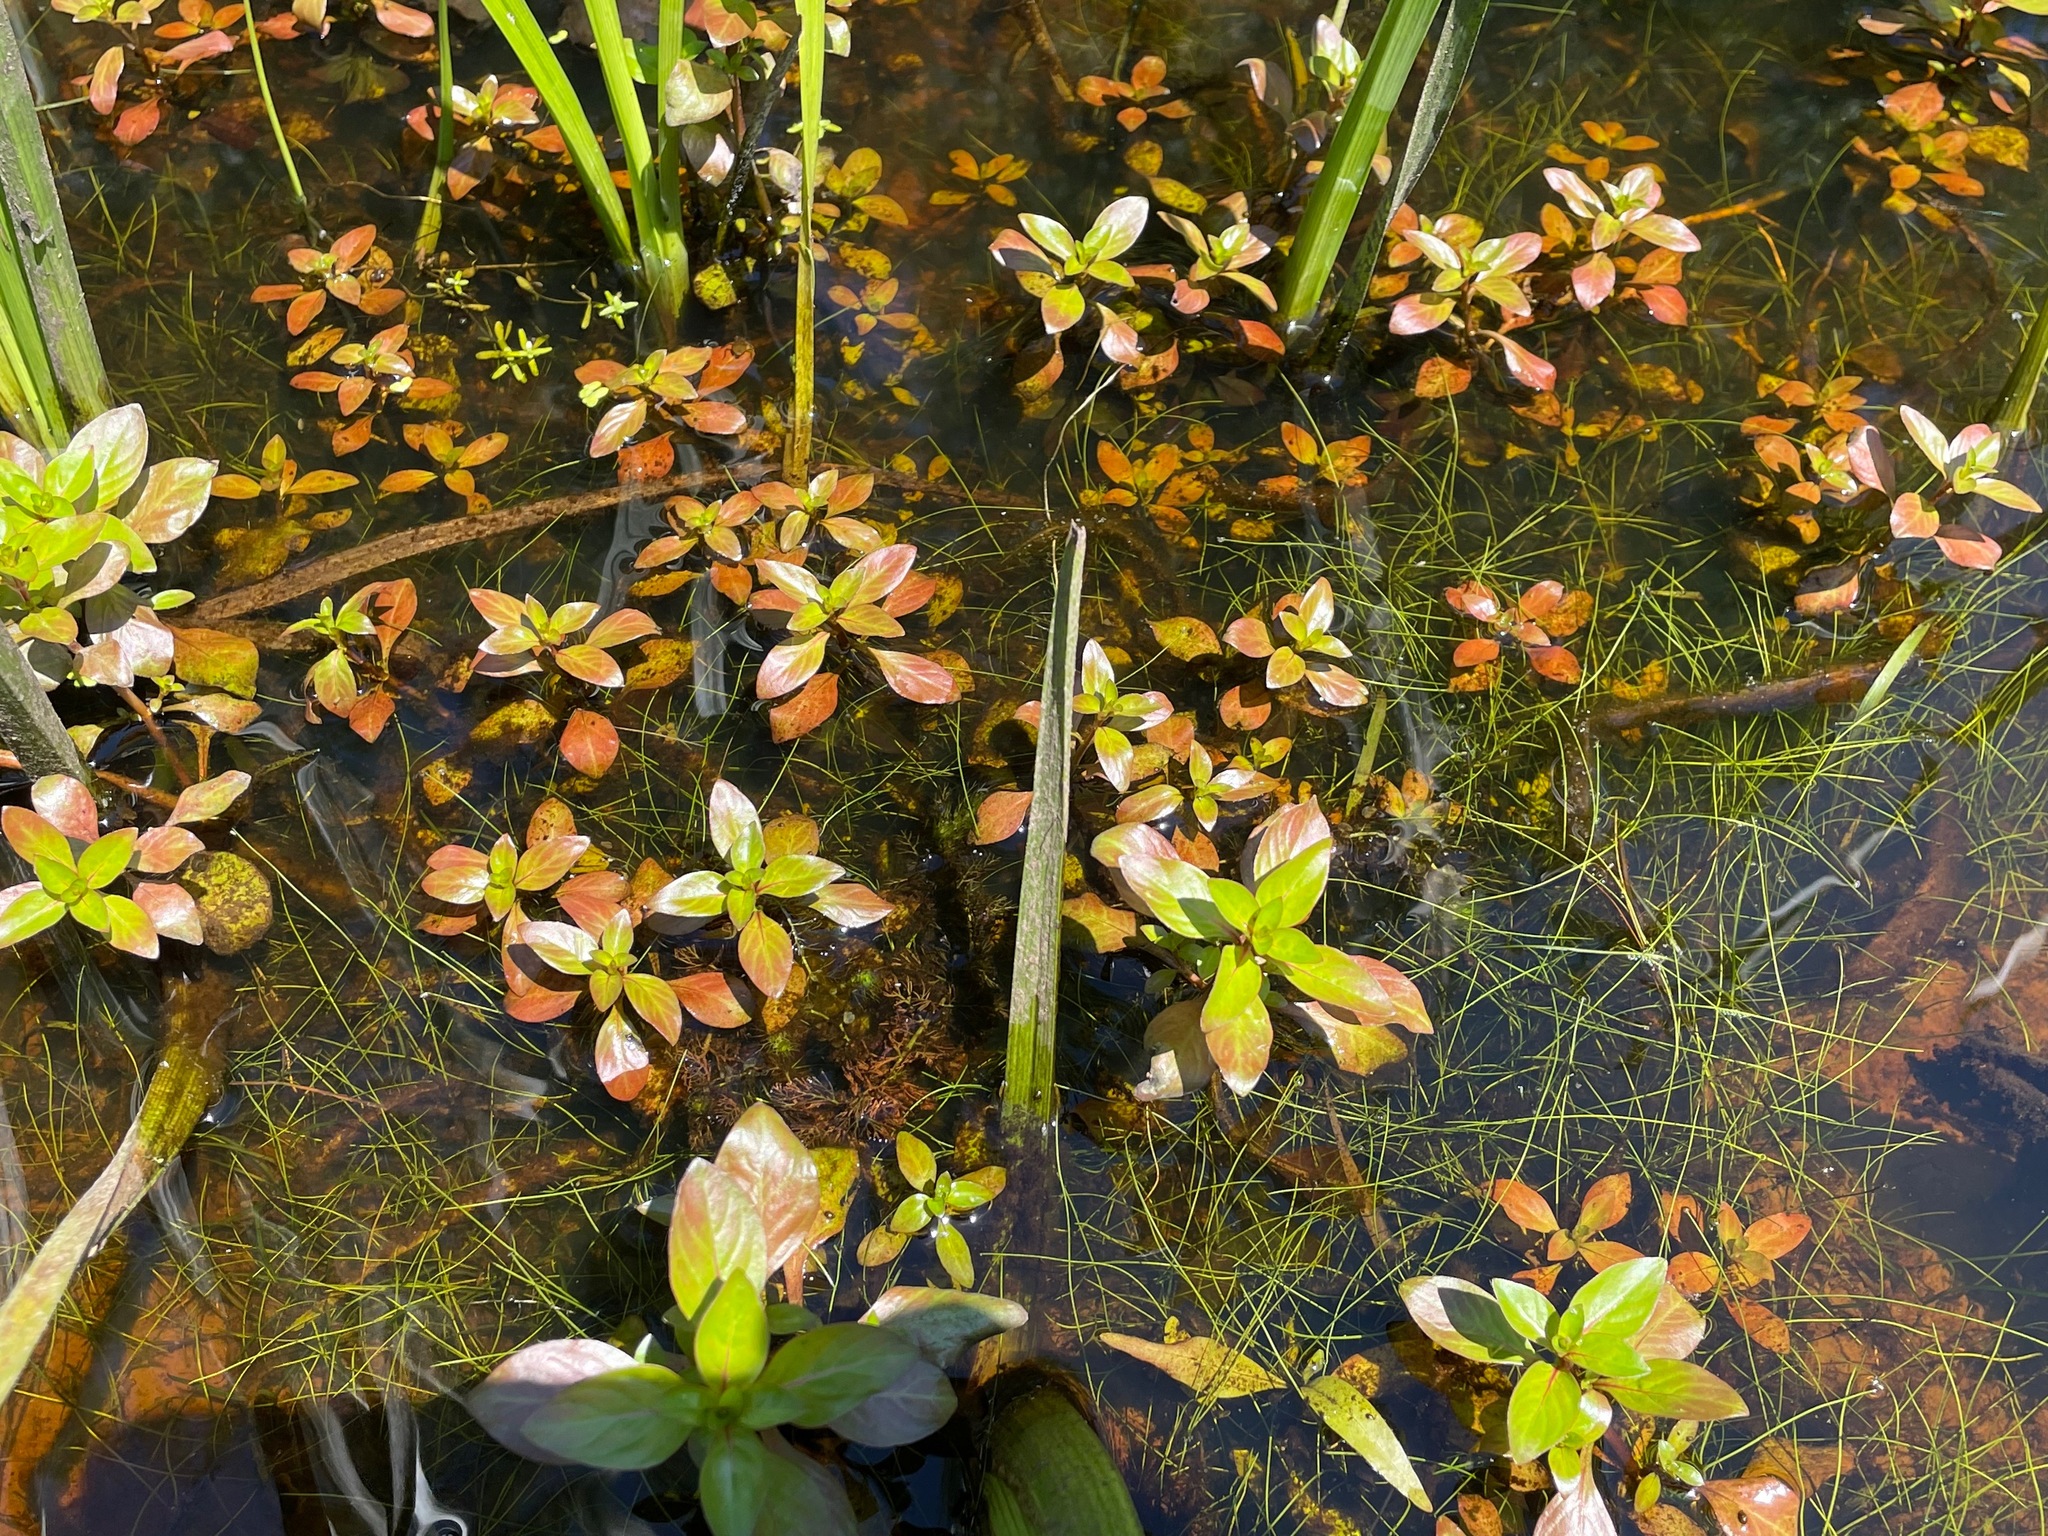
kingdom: Plantae
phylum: Tracheophyta
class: Magnoliopsida
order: Myrtales
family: Onagraceae
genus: Ludwigia
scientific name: Ludwigia palustris
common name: Hampshire-purslane
